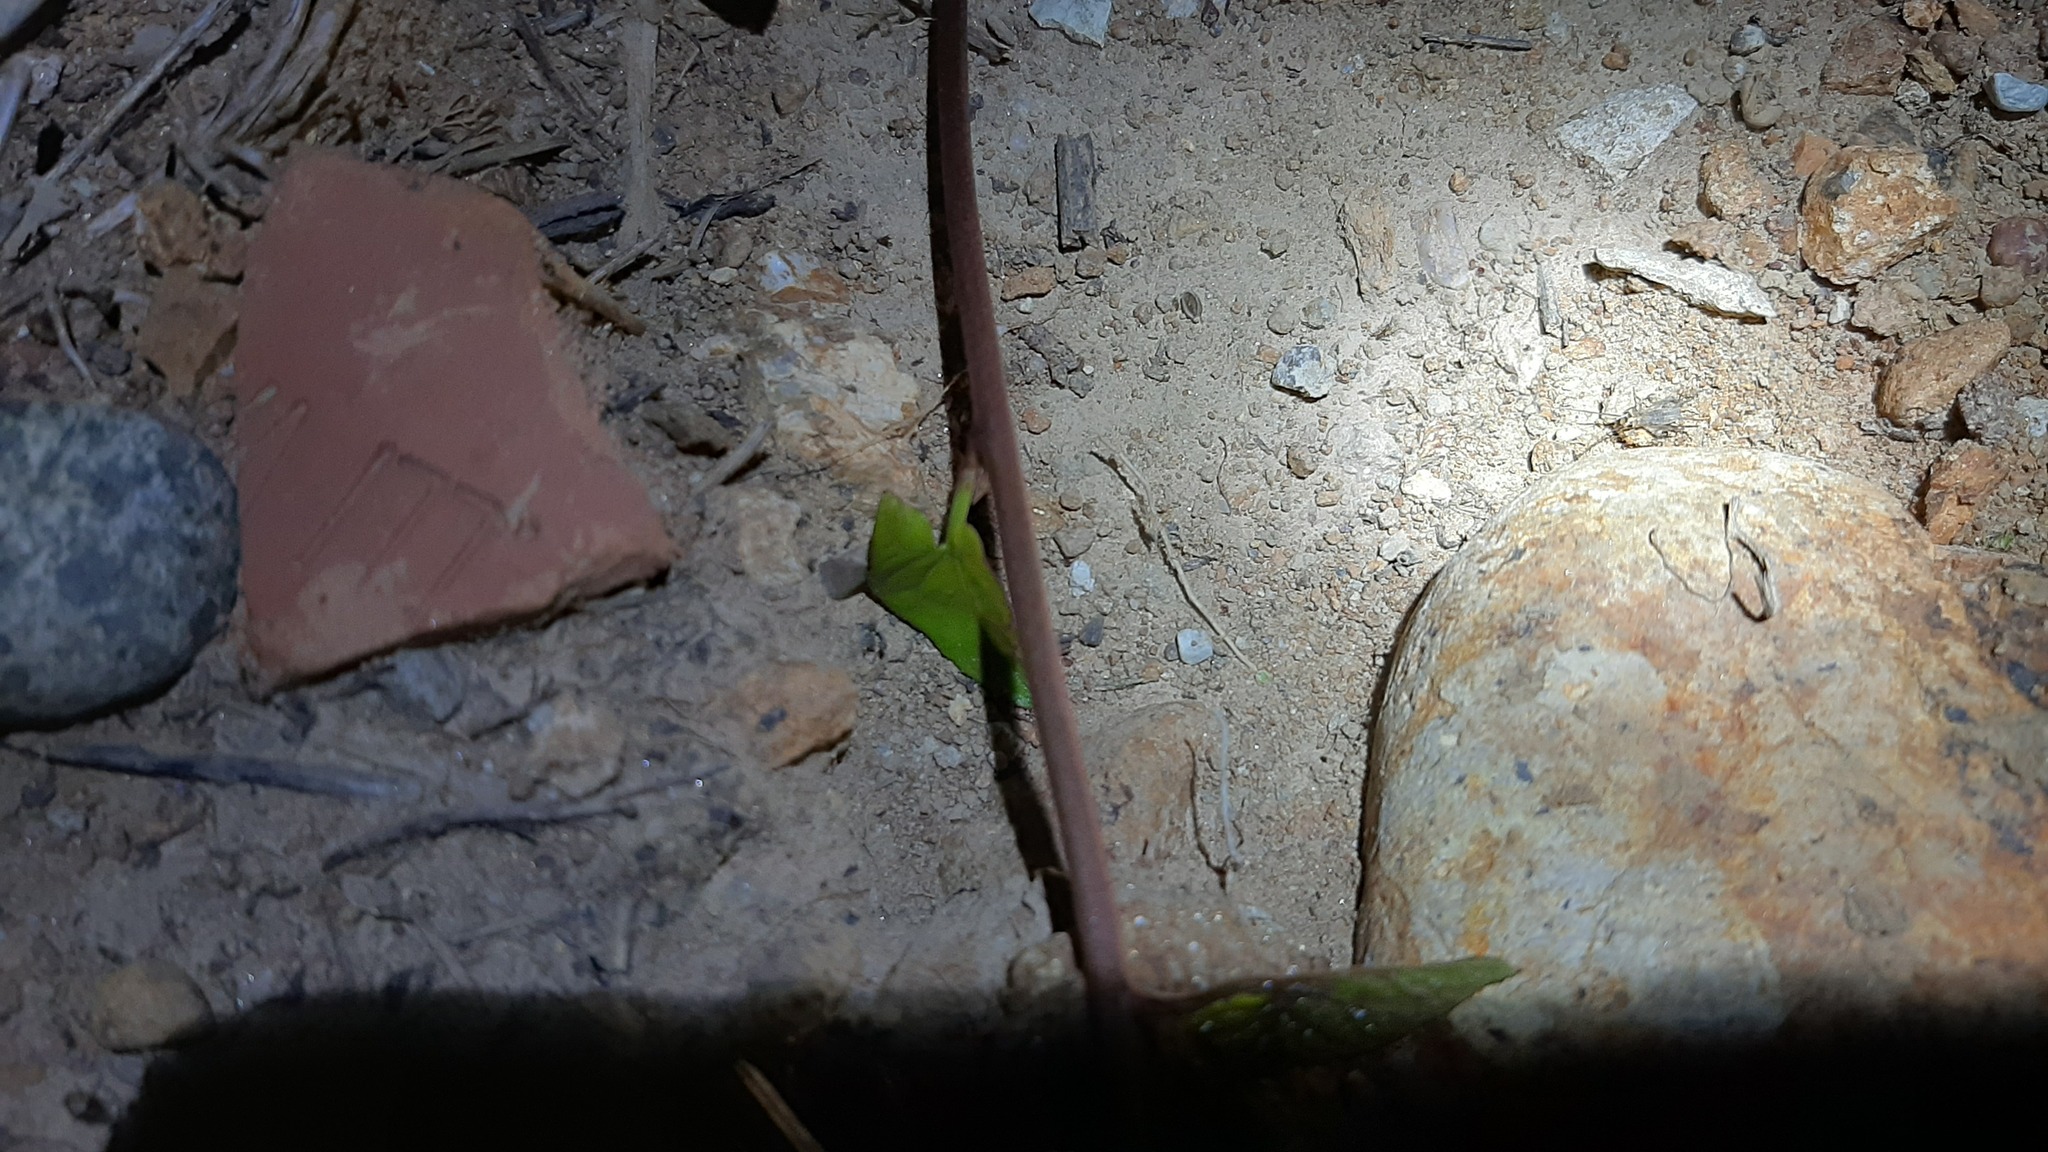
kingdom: Animalia
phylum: Arthropoda
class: Insecta
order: Orthoptera
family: Gryllidae
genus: Eumodicogryllus
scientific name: Eumodicogryllus bordigalensis
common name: Bordeaux cricket
